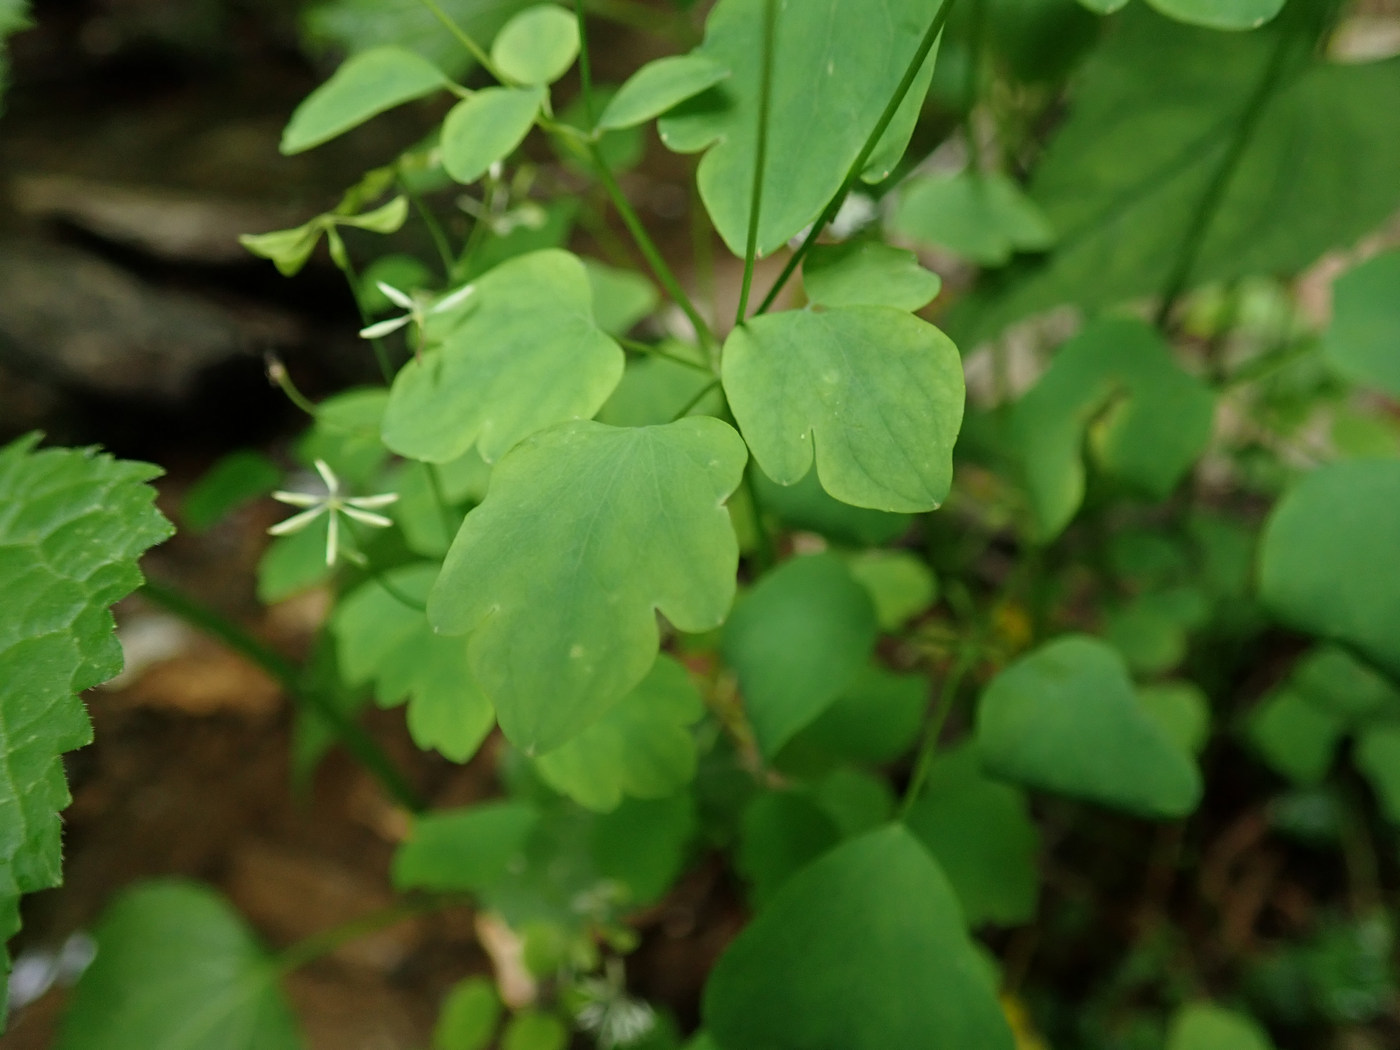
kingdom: Plantae
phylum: Tracheophyta
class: Magnoliopsida
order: Ranunculales
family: Ranunculaceae
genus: Thalictrum
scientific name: Thalictrum clavatum
